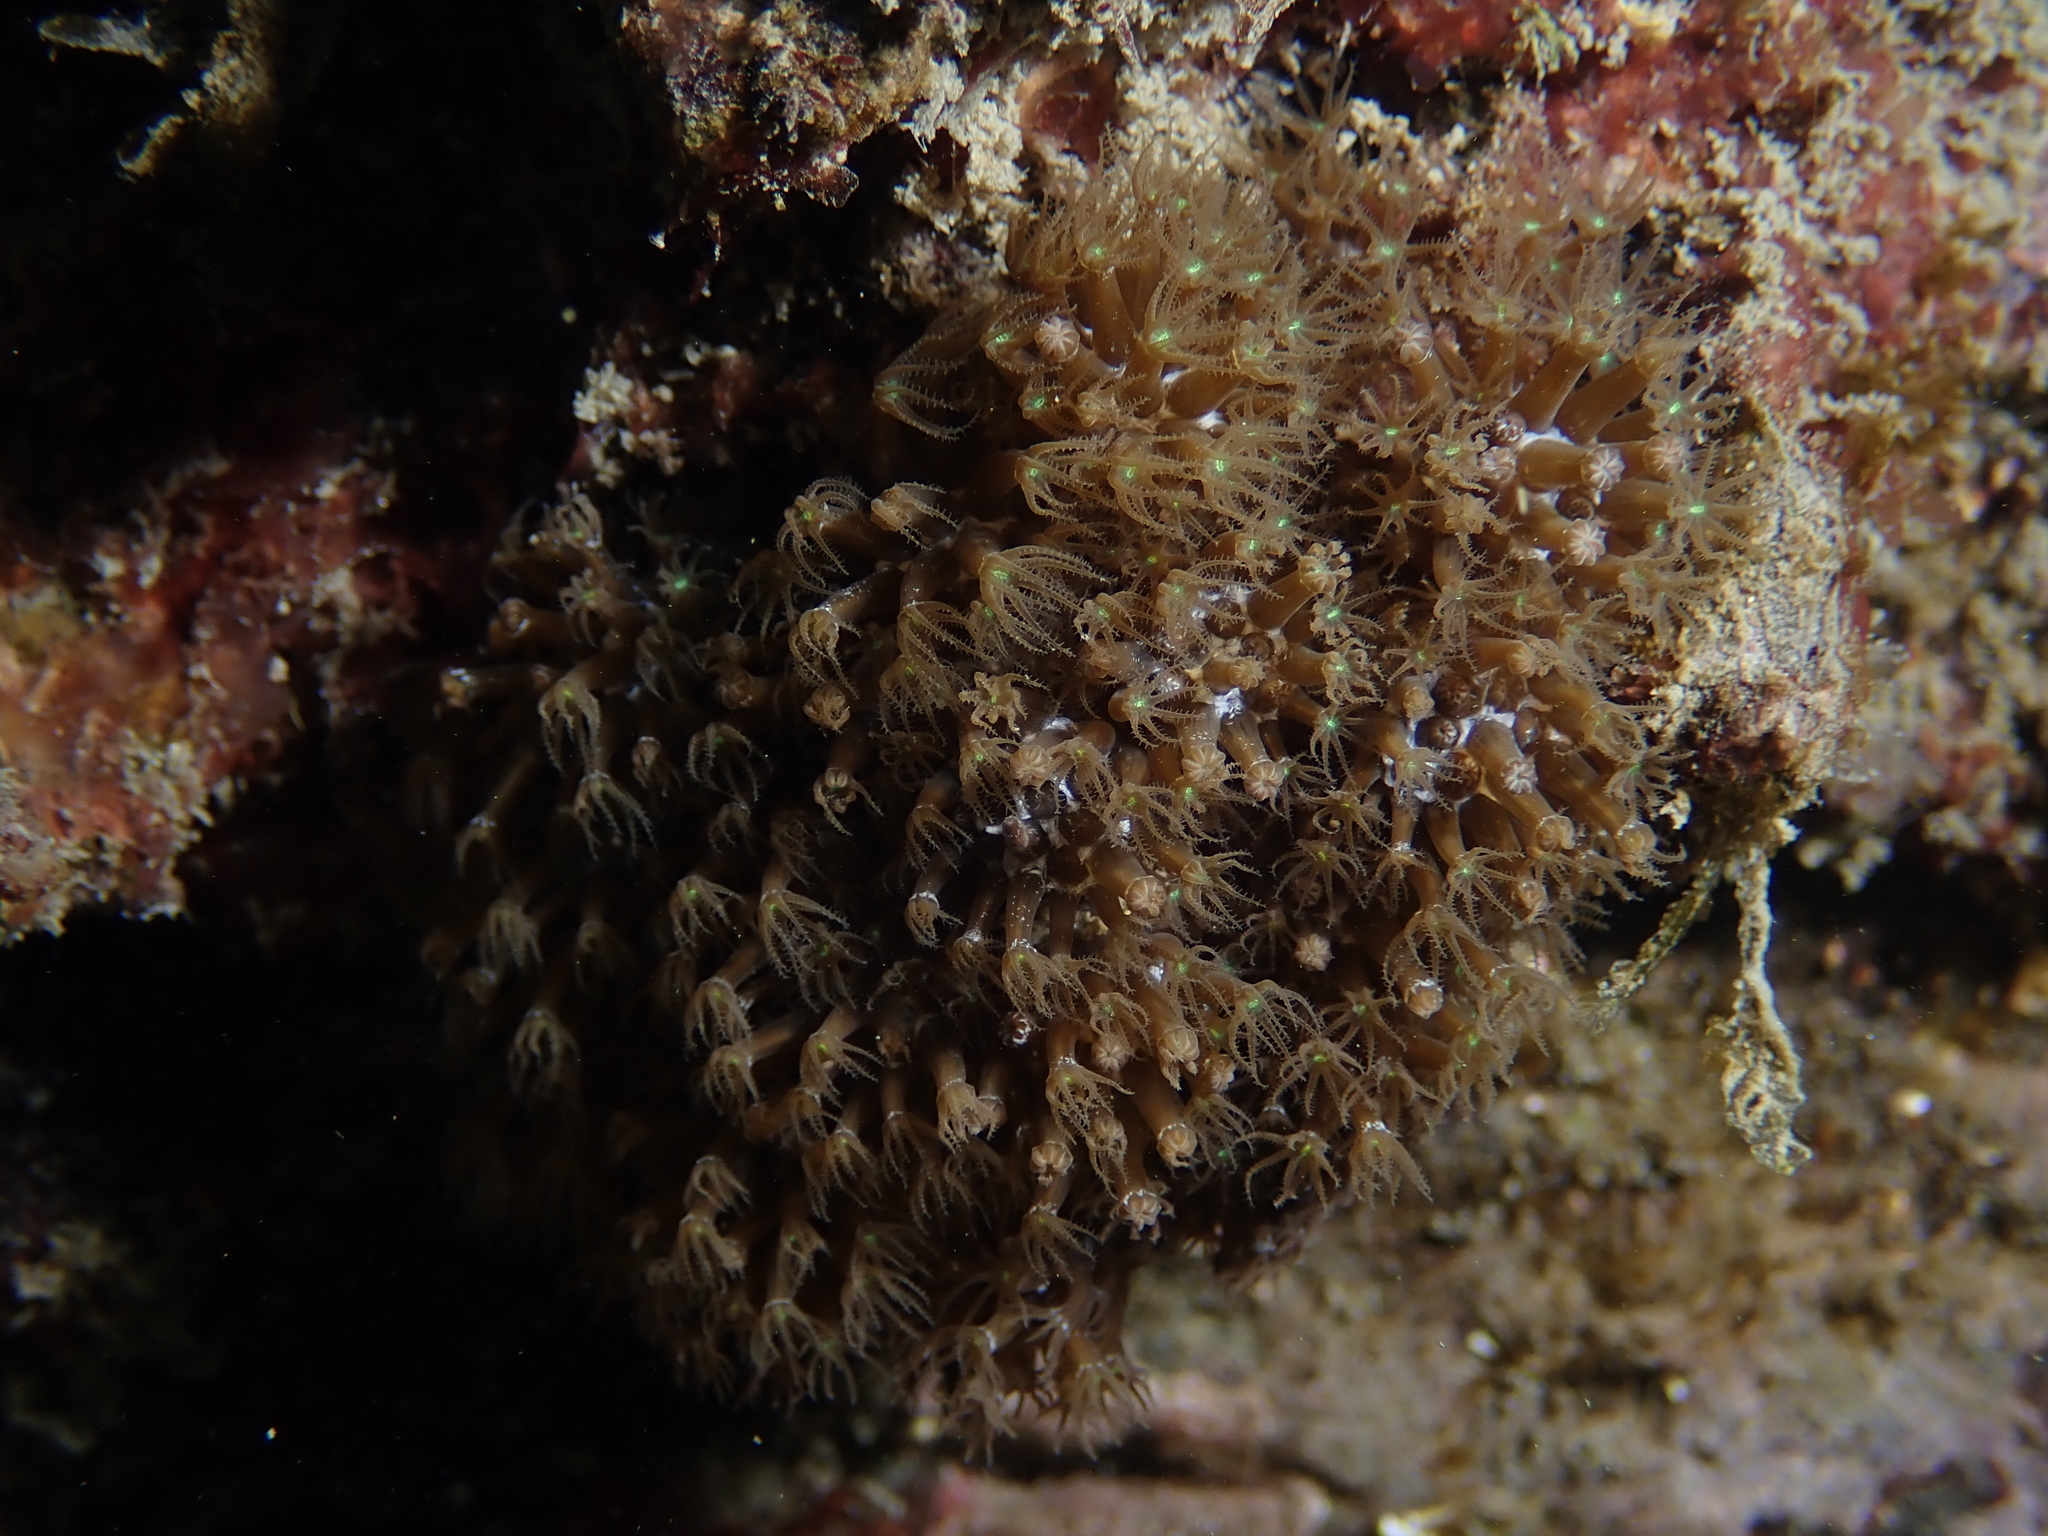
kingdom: Animalia
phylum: Cnidaria
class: Anthozoa
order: Malacalcyonacea
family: Paralcyoniidae
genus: Maasella
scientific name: Maasella edwardsii
